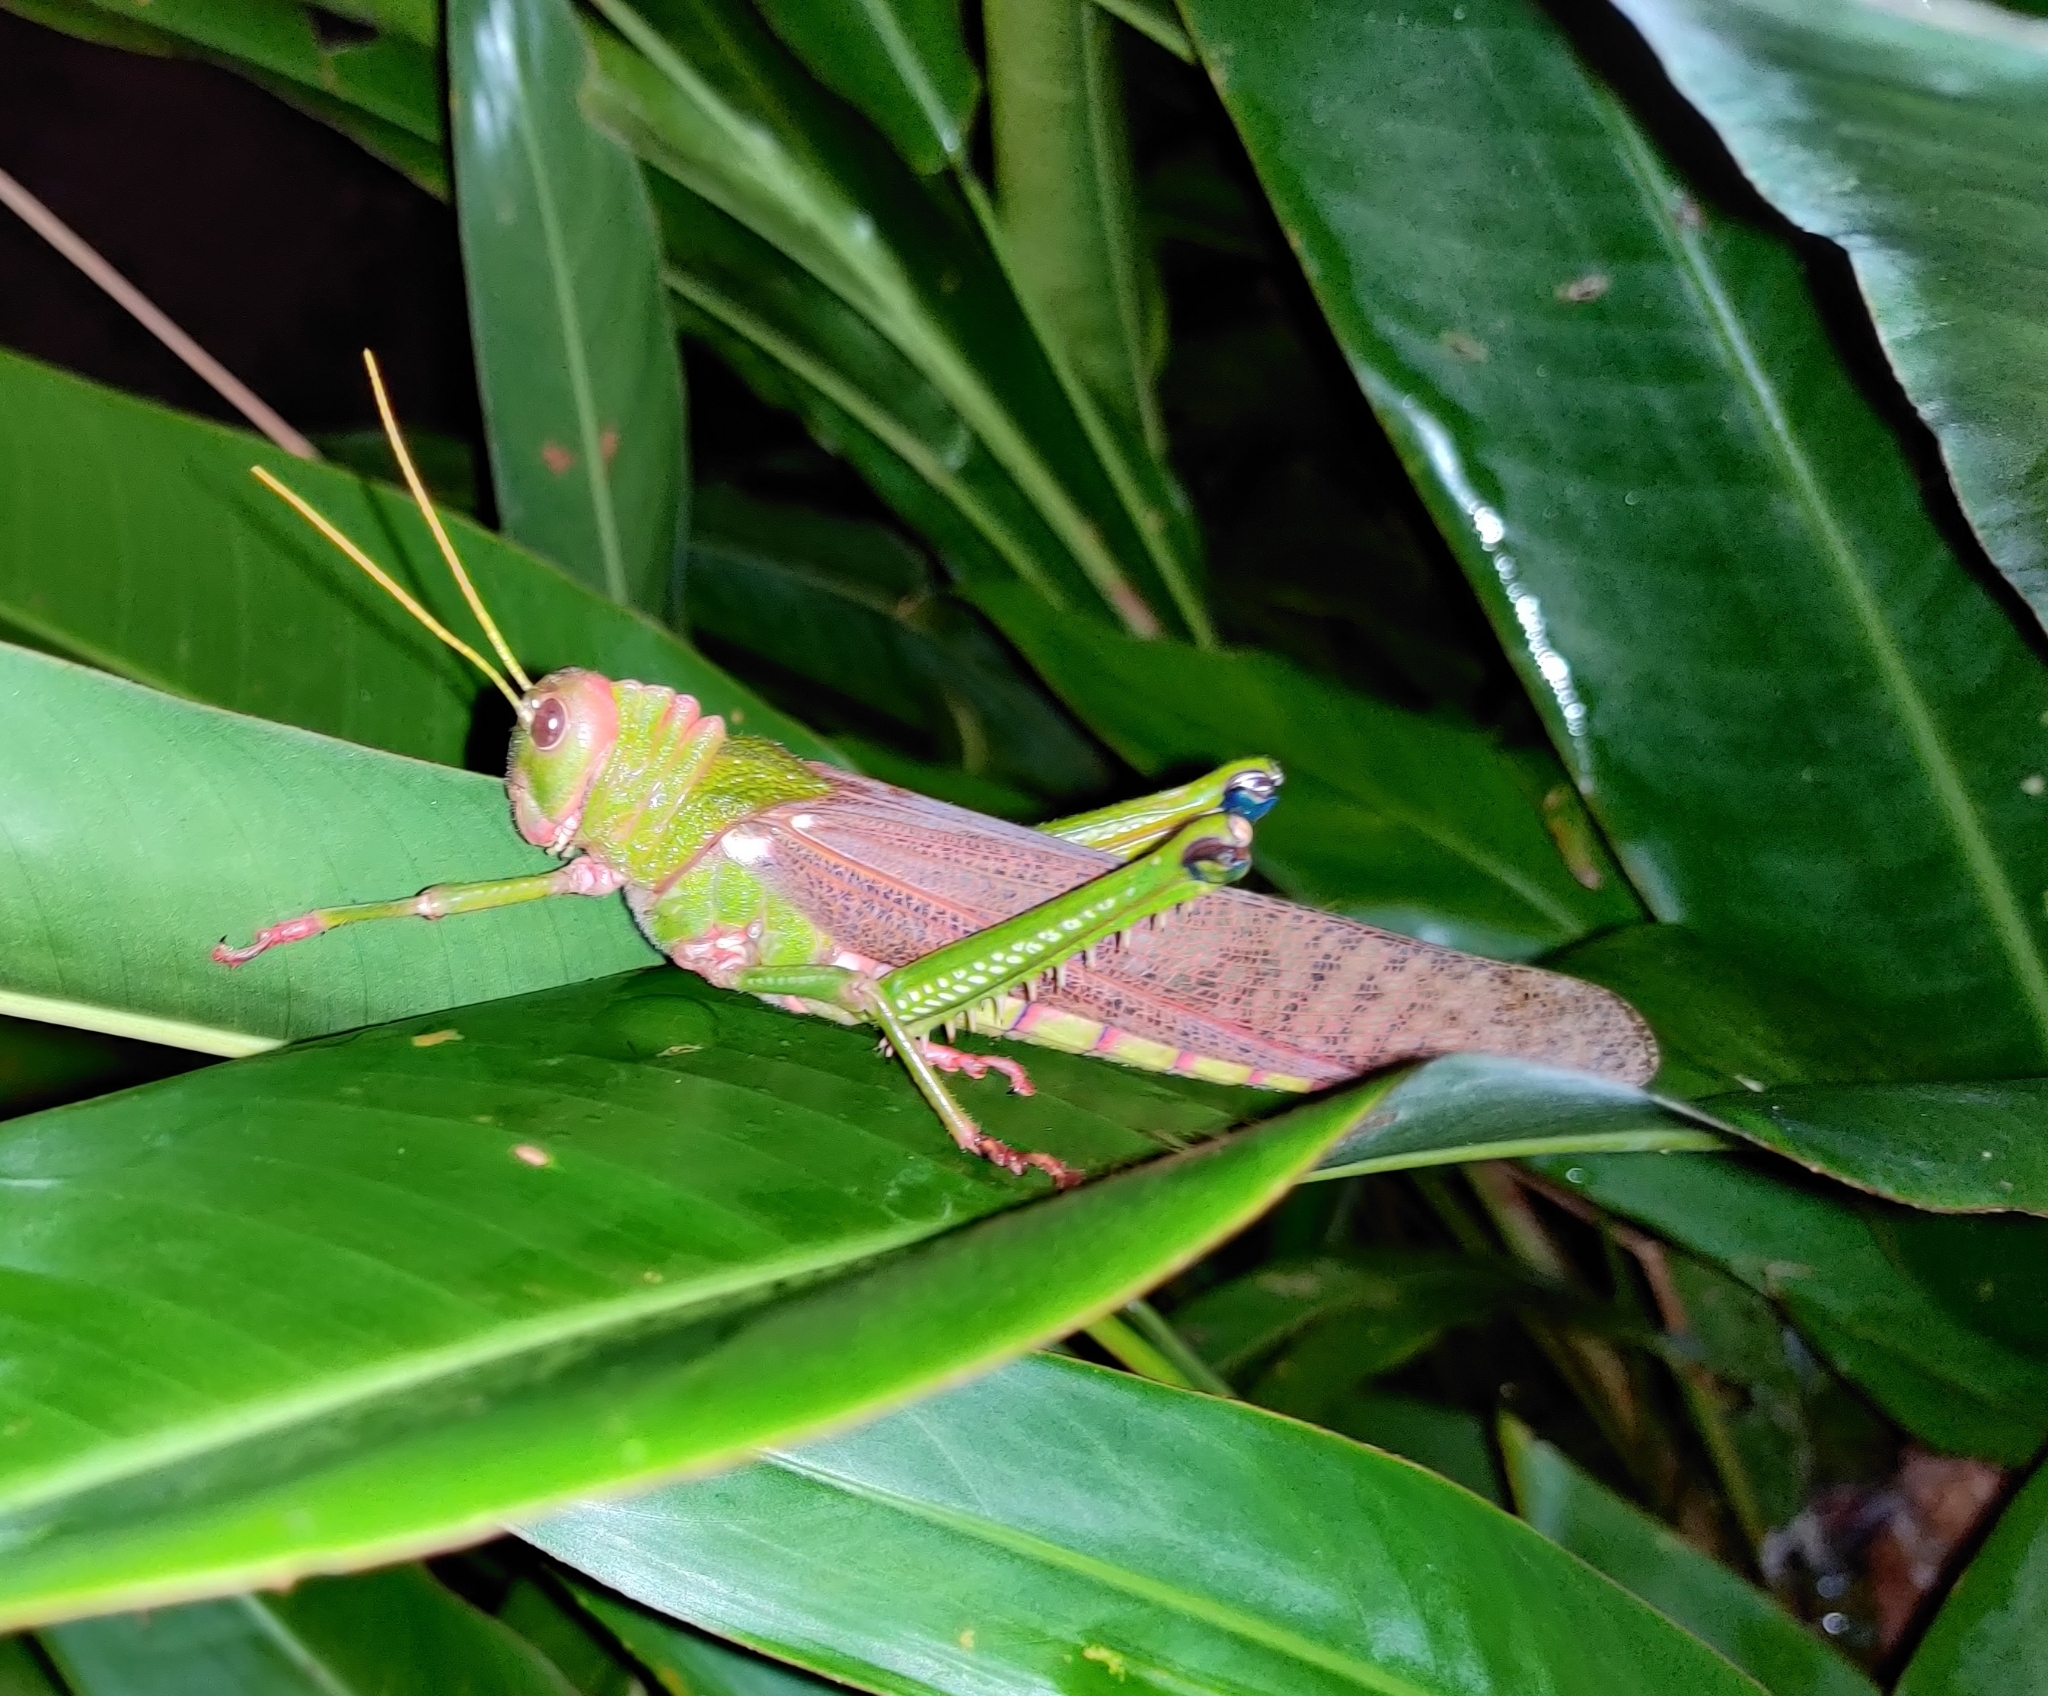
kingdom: Animalia
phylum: Arthropoda
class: Insecta
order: Orthoptera
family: Romaleidae
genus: Tropidacris
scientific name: Tropidacris collaris
